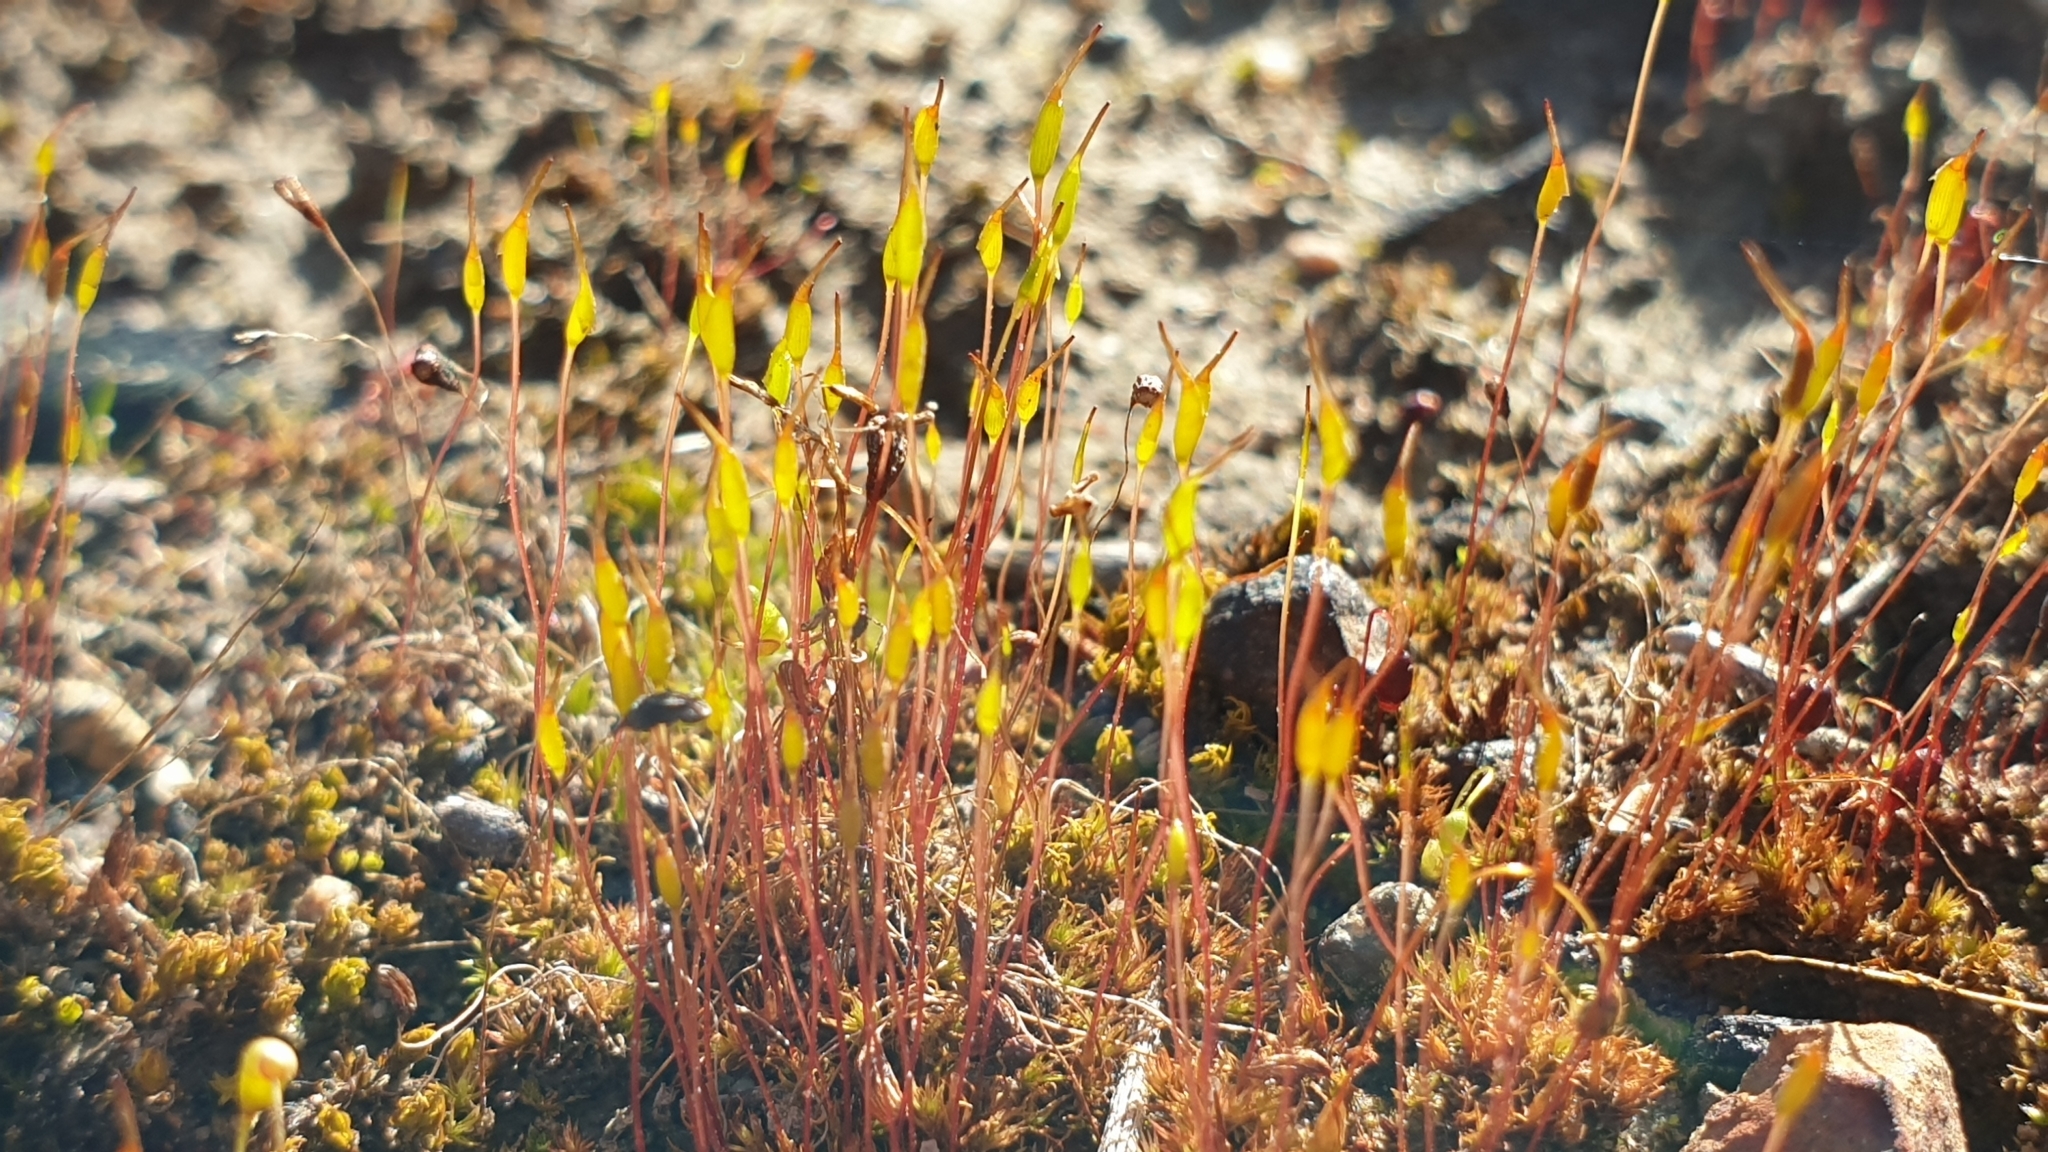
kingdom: Plantae
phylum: Bryophyta
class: Bryopsida
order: Dicranales
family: Ditrichaceae
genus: Ceratodon
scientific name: Ceratodon purpureus
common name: Redshank
